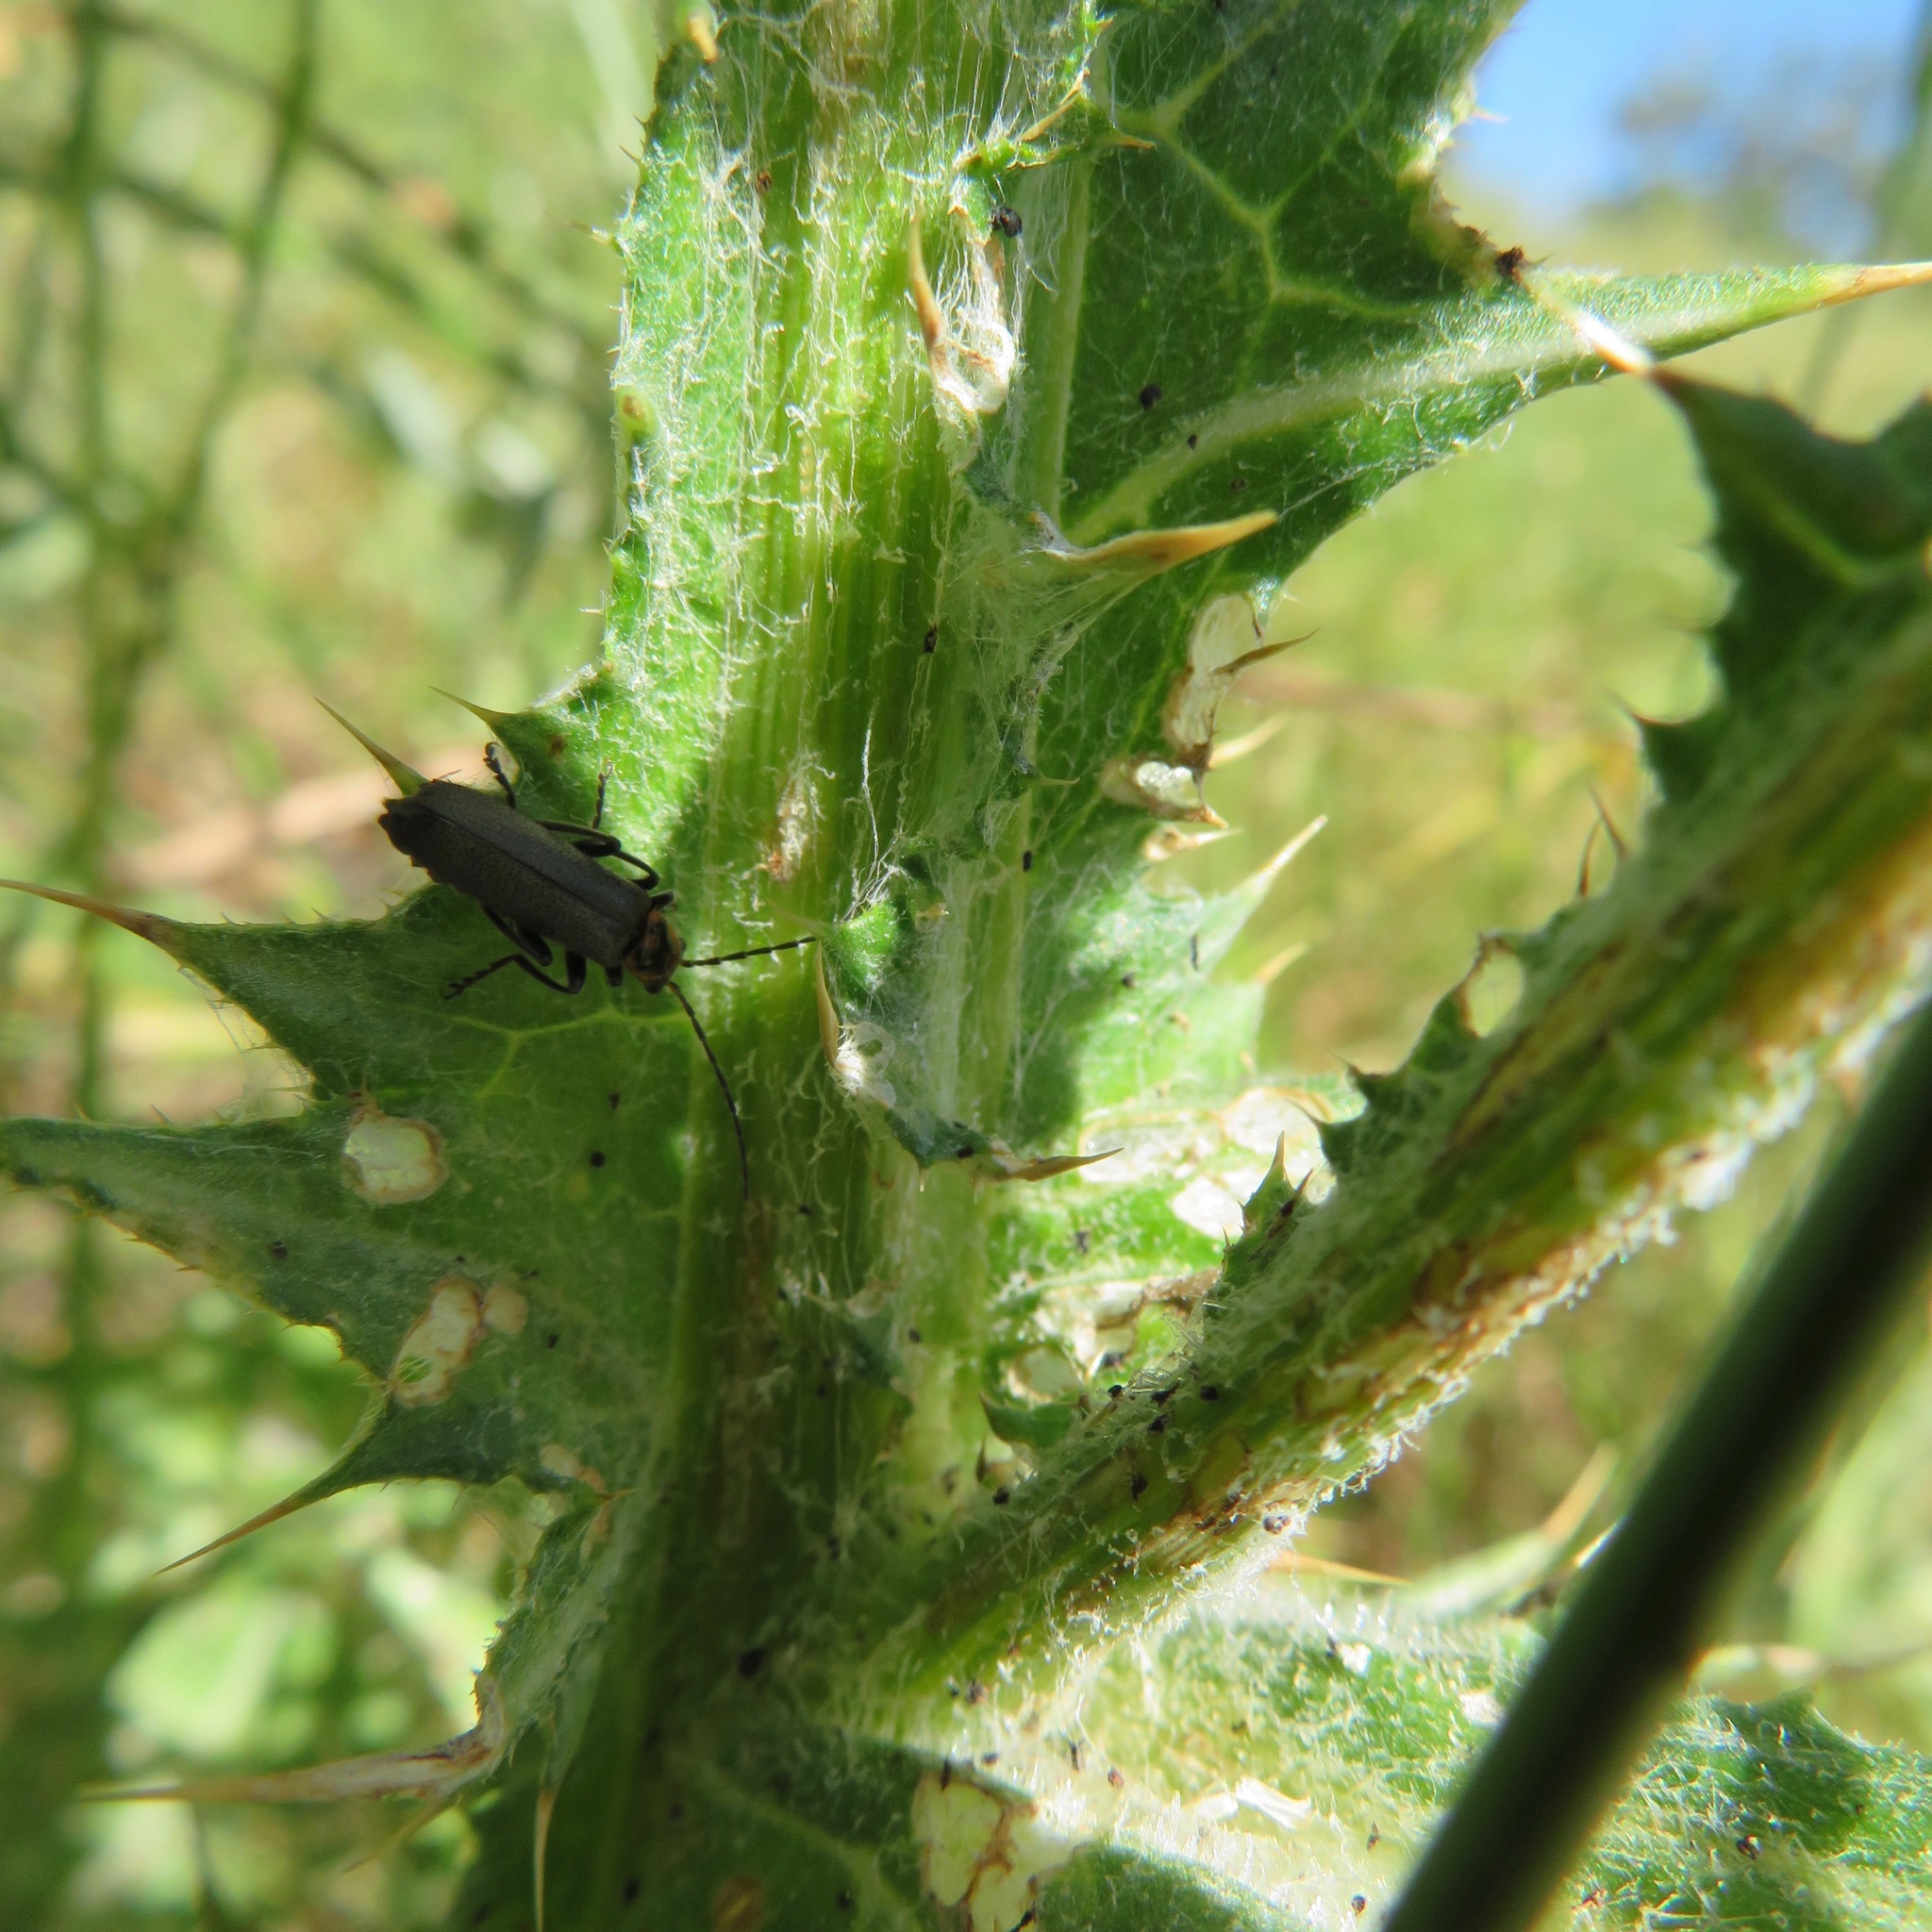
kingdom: Animalia
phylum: Arthropoda
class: Insecta
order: Coleoptera
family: Cantharidae
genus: Cyrtomoptera
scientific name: Cyrtomoptera divisa
